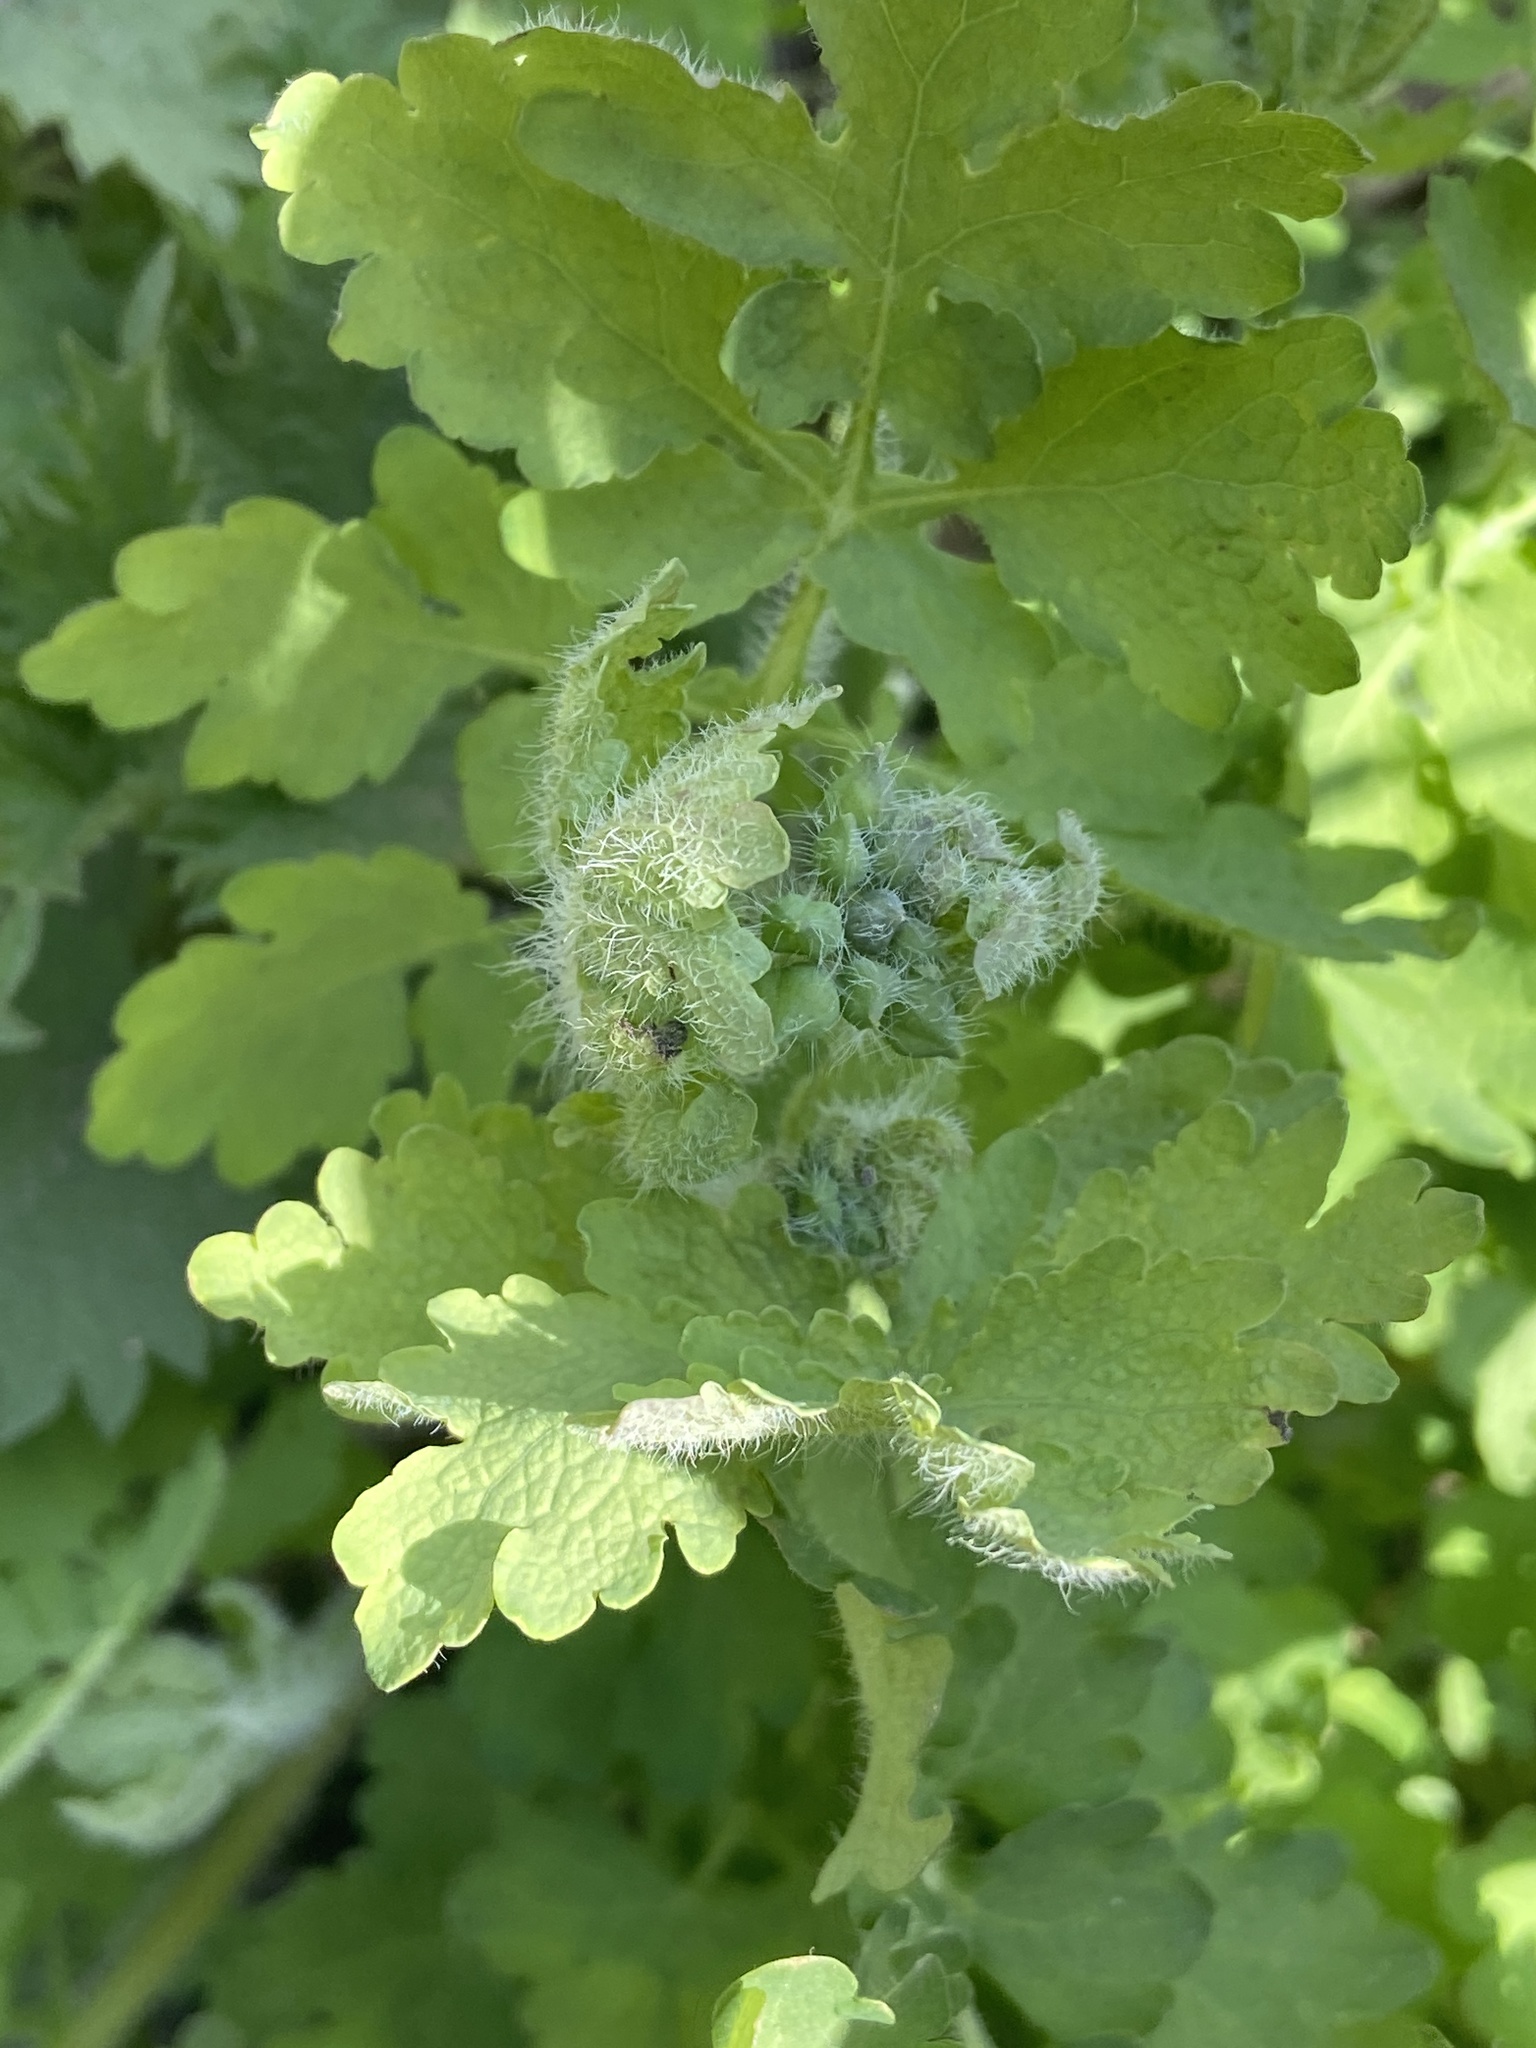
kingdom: Plantae
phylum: Tracheophyta
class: Magnoliopsida
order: Ranunculales
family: Papaveraceae
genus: Chelidonium
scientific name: Chelidonium majus
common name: Greater celandine
